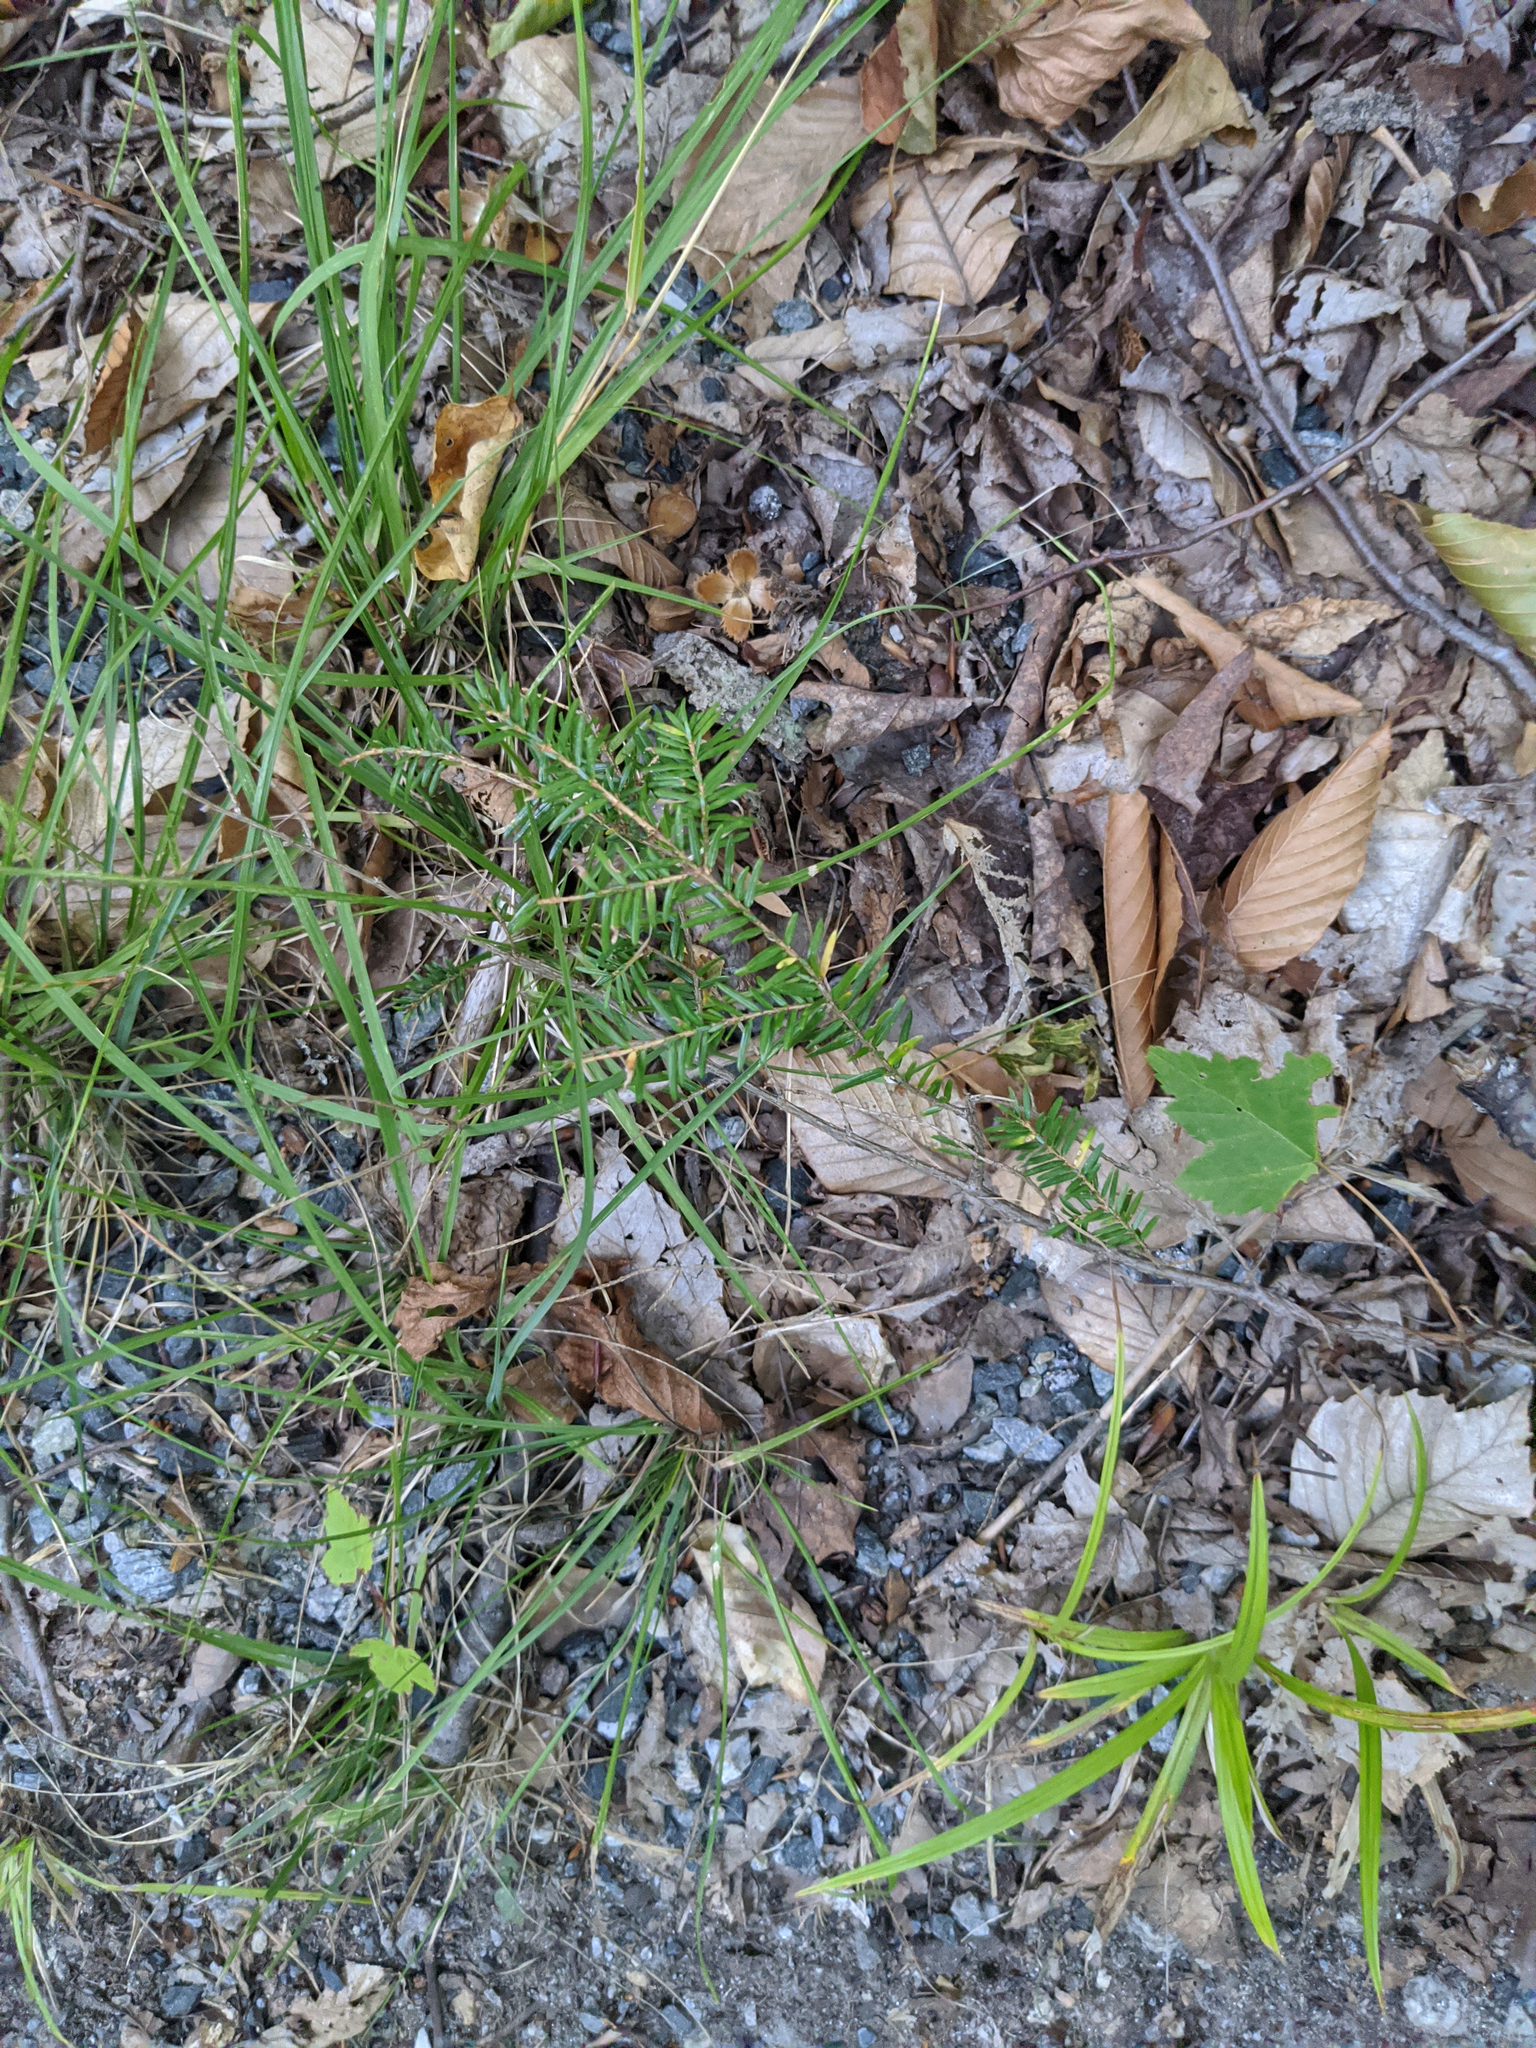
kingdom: Plantae
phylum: Tracheophyta
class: Pinopsida
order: Pinales
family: Pinaceae
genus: Tsuga
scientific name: Tsuga canadensis
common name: Eastern hemlock
